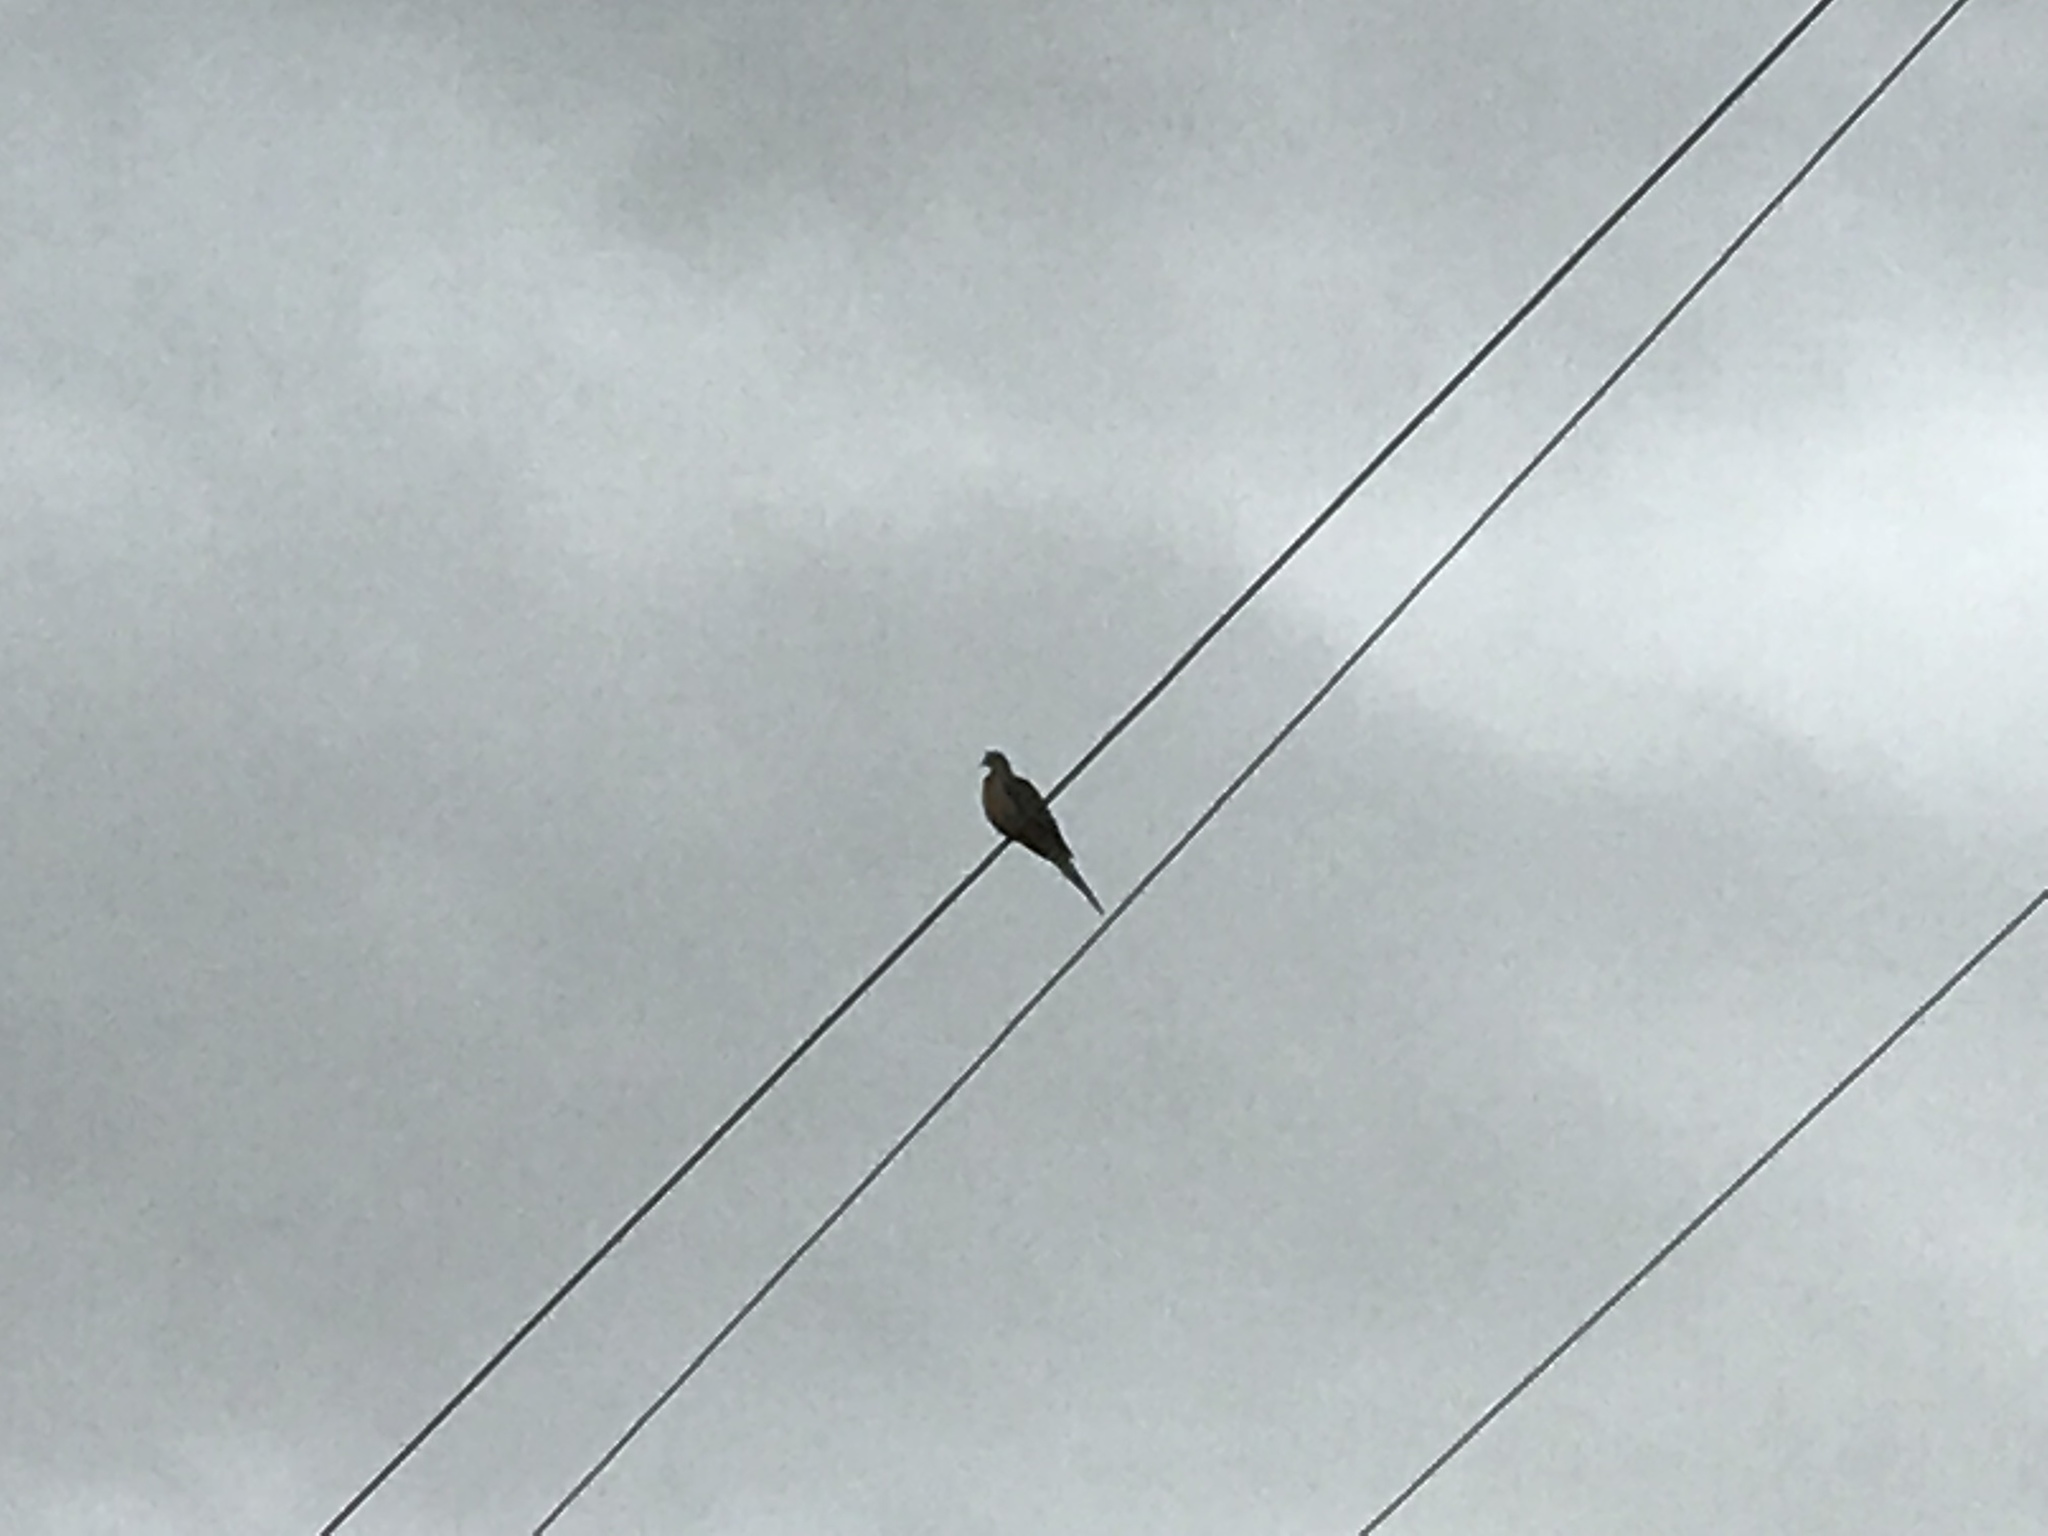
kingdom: Animalia
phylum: Chordata
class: Aves
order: Columbiformes
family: Columbidae
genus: Zenaida
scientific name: Zenaida macroura
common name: Mourning dove
